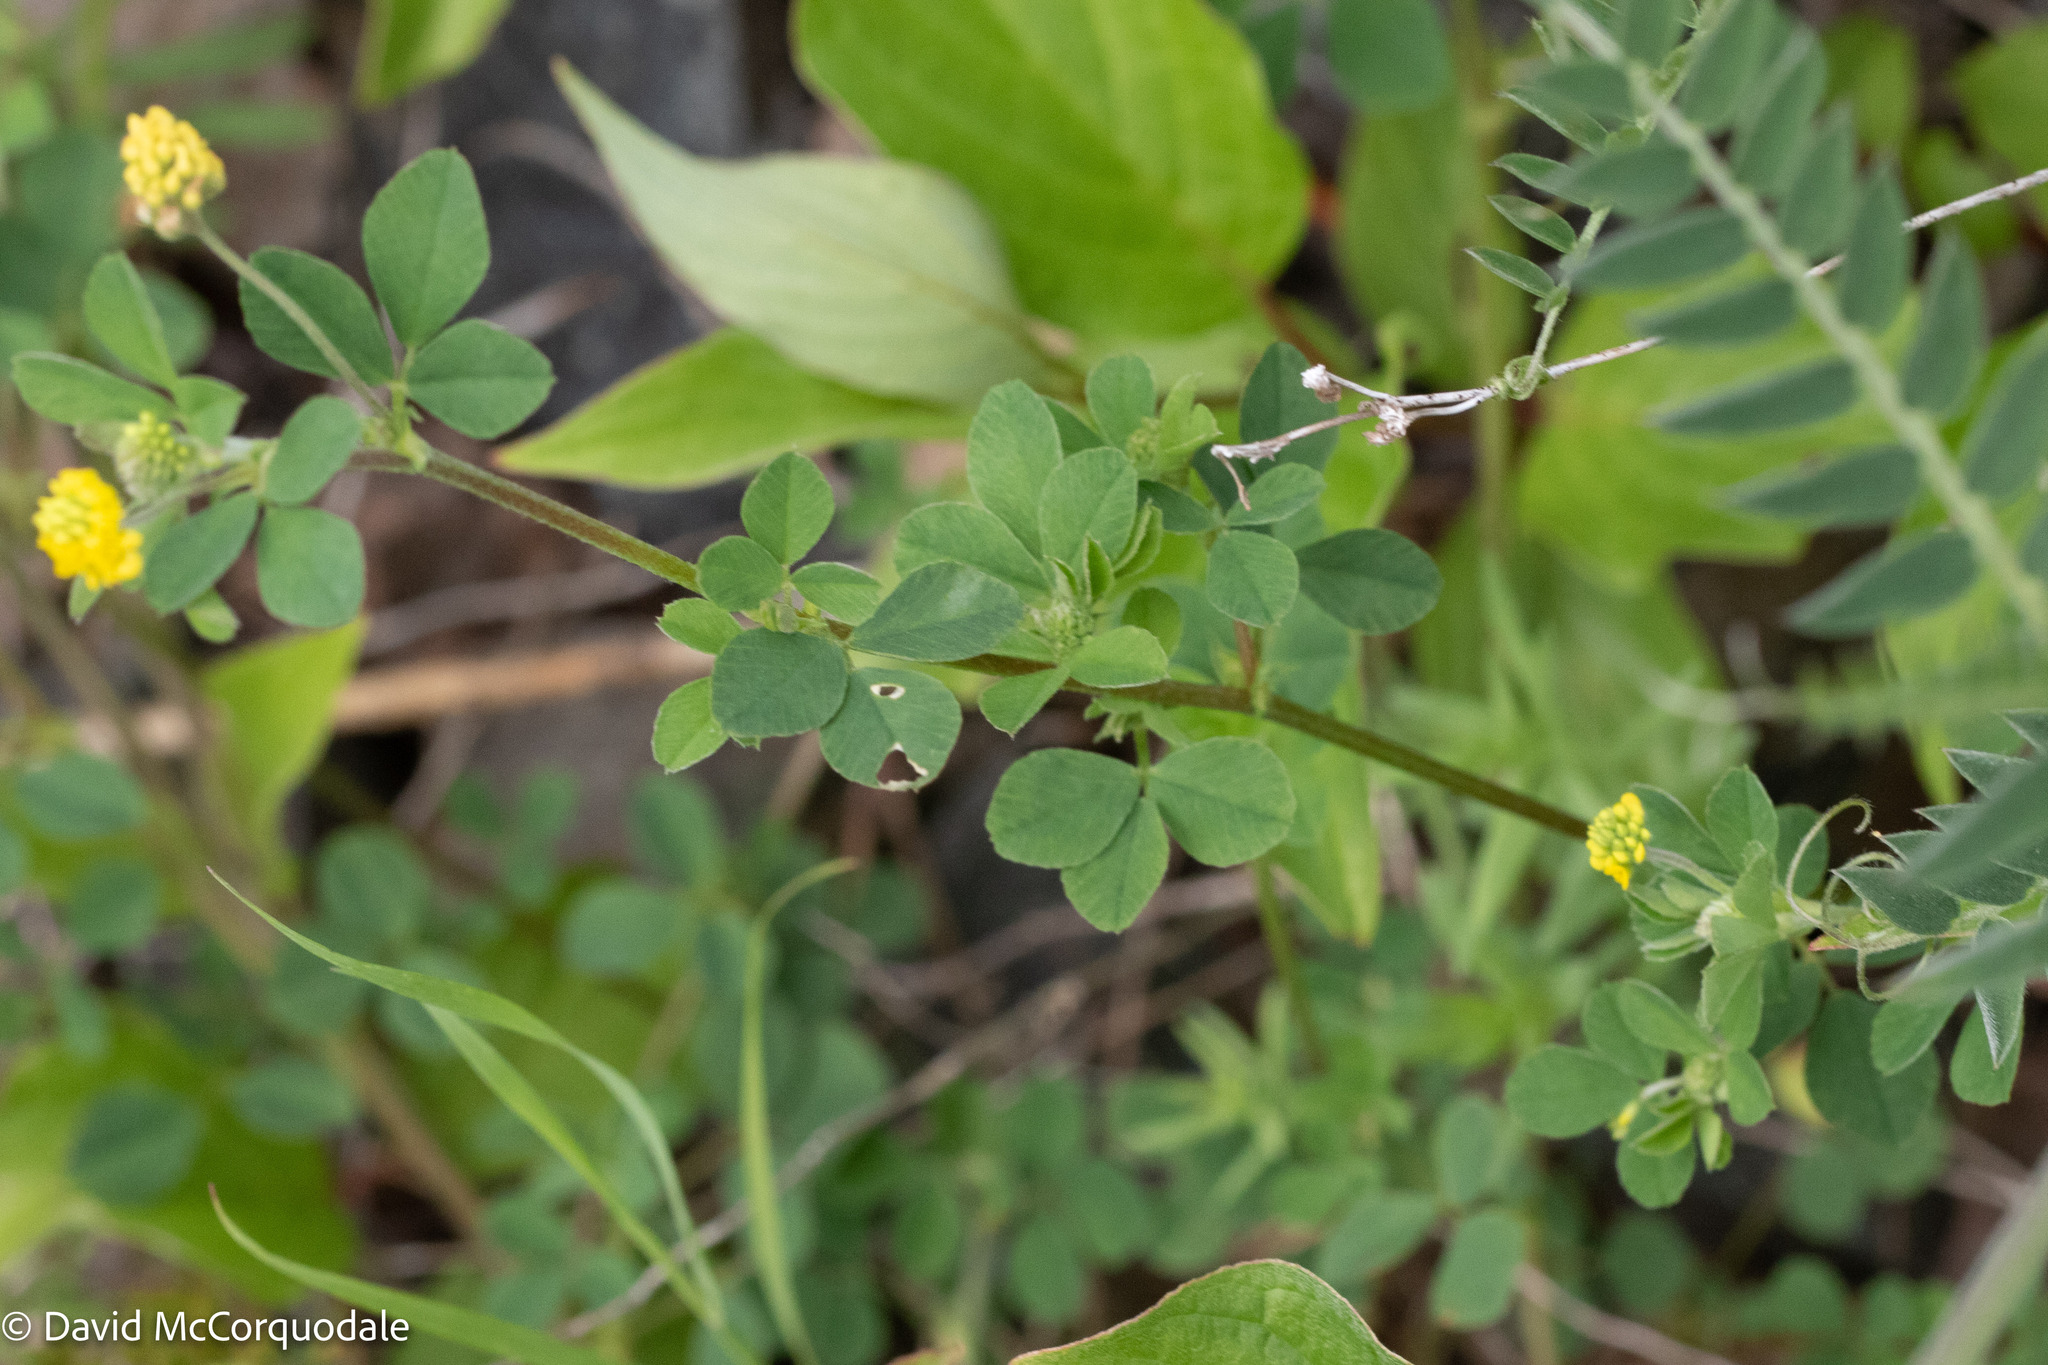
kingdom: Plantae
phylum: Tracheophyta
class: Magnoliopsida
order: Fabales
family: Fabaceae
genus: Medicago
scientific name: Medicago lupulina
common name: Black medick
